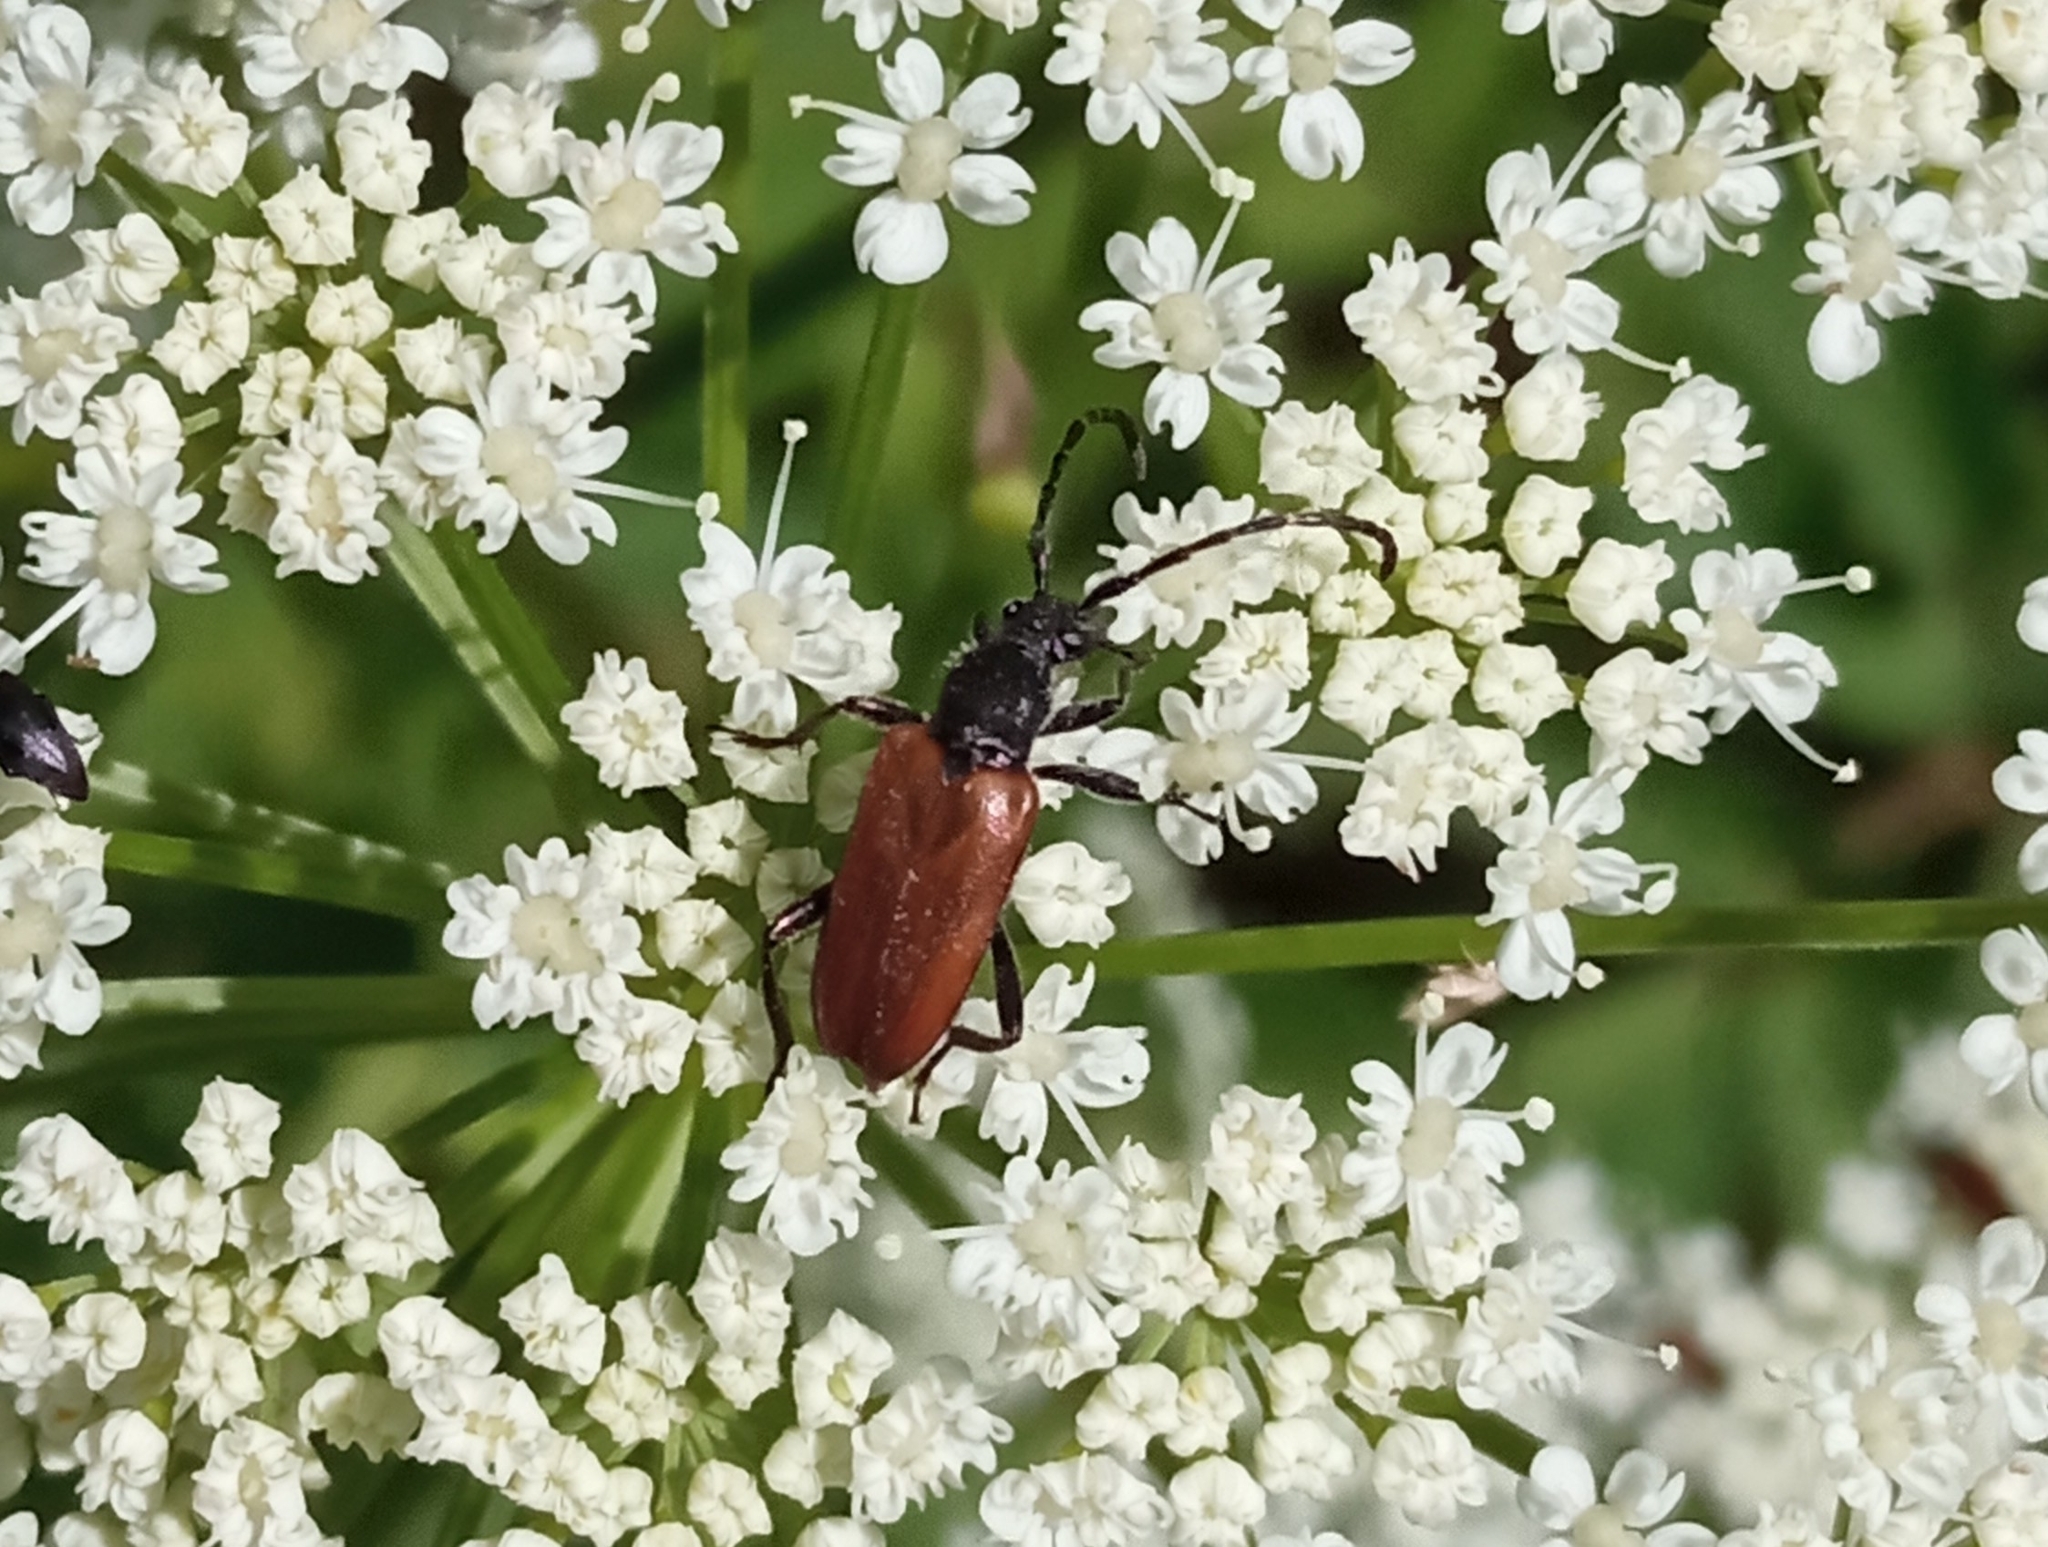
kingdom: Animalia
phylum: Arthropoda
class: Insecta
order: Coleoptera
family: Cerambycidae
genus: Paracorymbia
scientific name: Paracorymbia maculicornis
